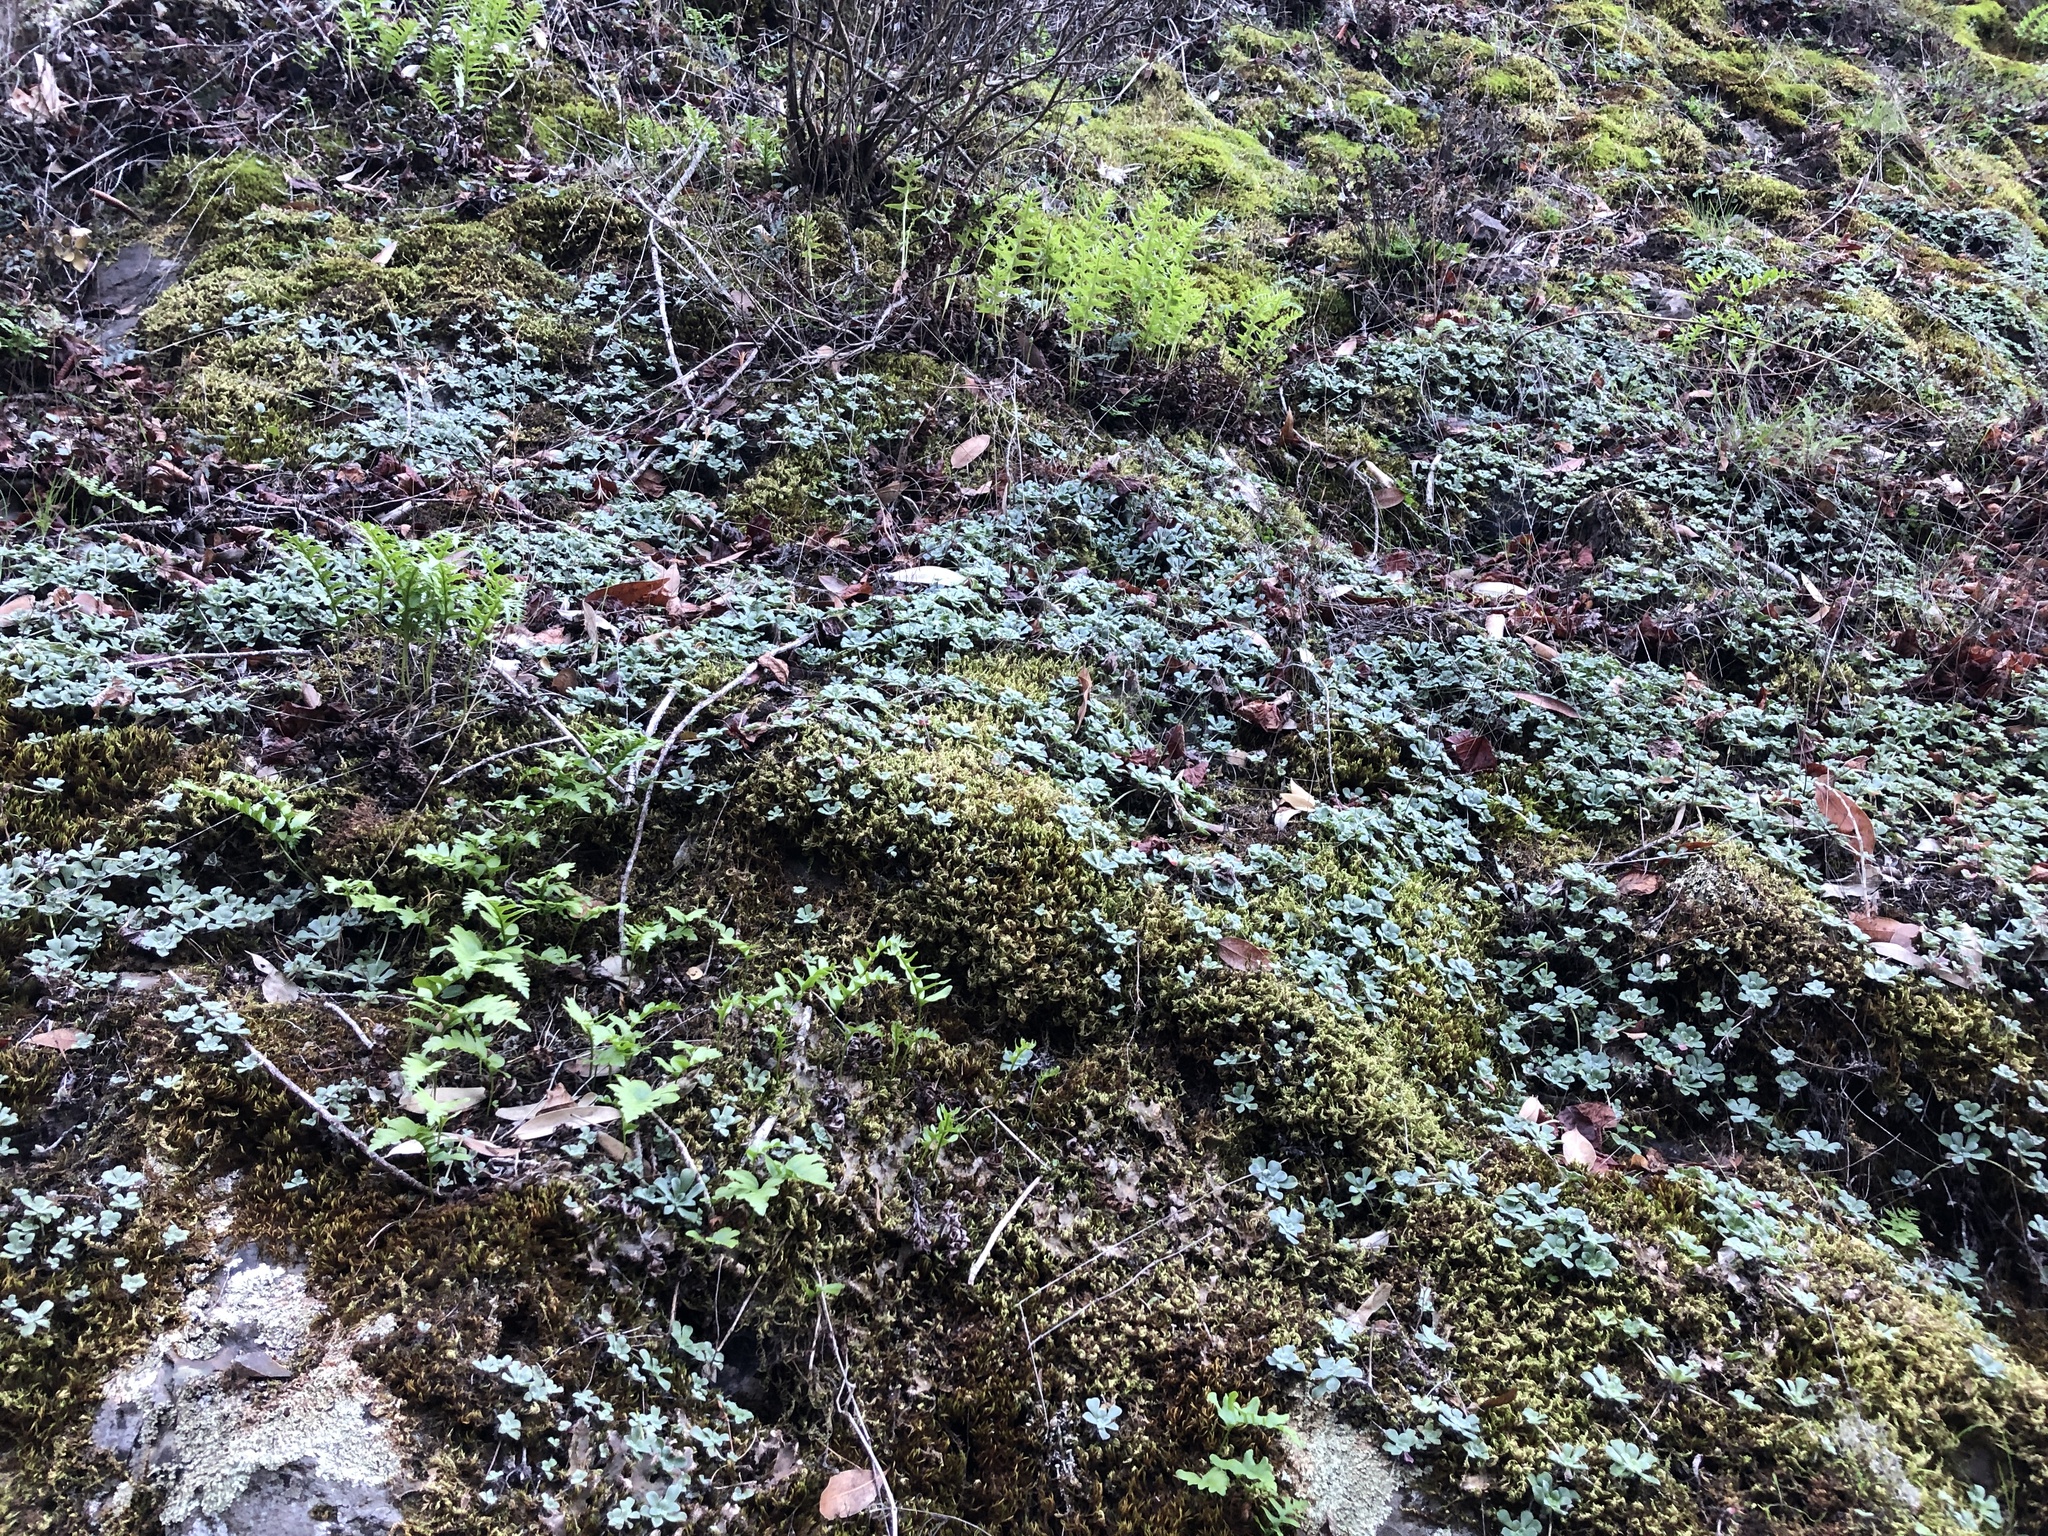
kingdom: Plantae
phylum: Tracheophyta
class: Magnoliopsida
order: Saxifragales
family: Crassulaceae
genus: Sedum
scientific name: Sedum spathulifolium
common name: Colorado stonecrop
